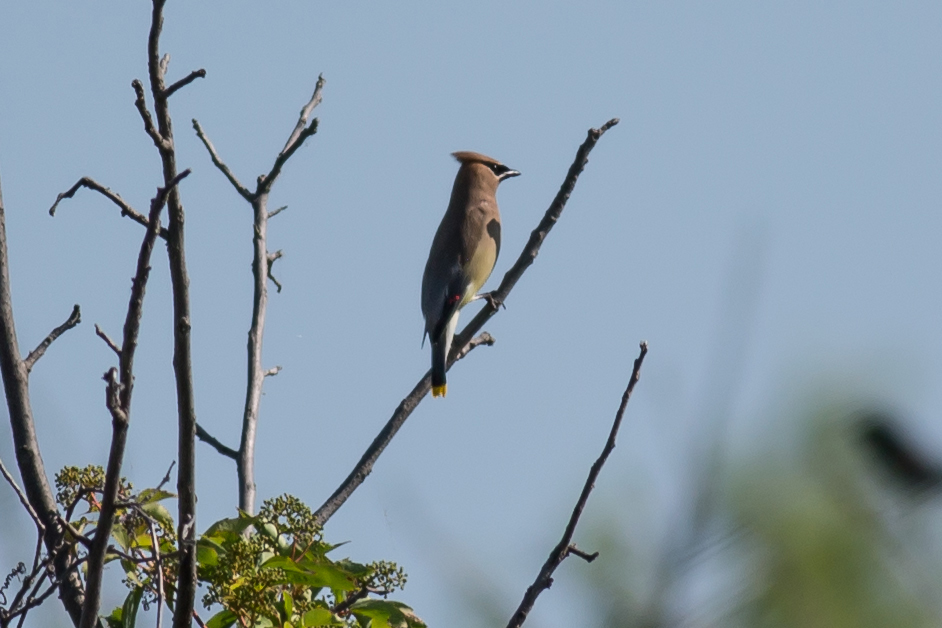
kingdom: Animalia
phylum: Chordata
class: Aves
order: Passeriformes
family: Bombycillidae
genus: Bombycilla
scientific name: Bombycilla cedrorum
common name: Cedar waxwing
